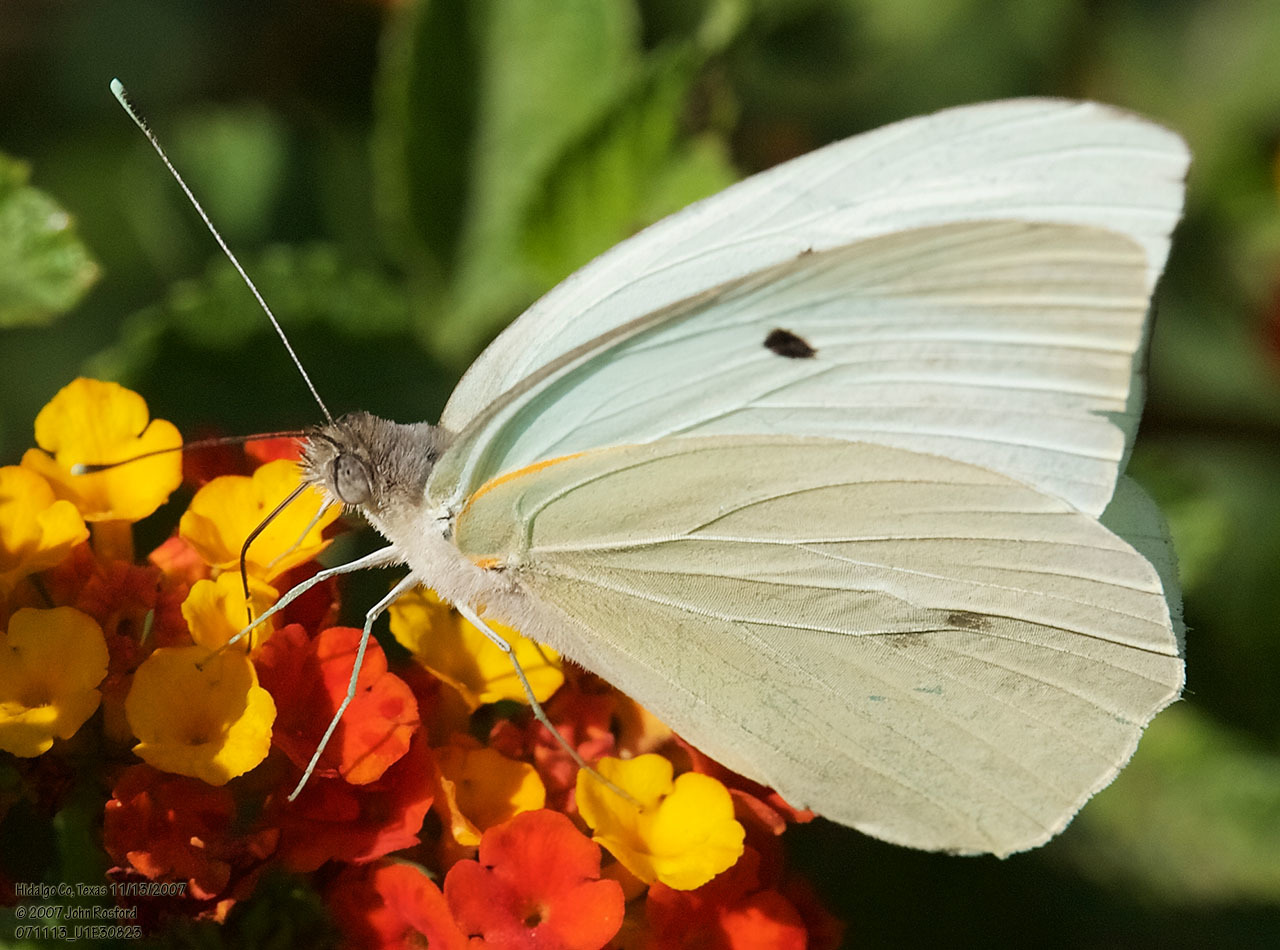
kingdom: Animalia
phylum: Arthropoda
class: Insecta
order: Lepidoptera
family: Pieridae
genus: Ganyra
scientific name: Ganyra josephina
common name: Giant white
